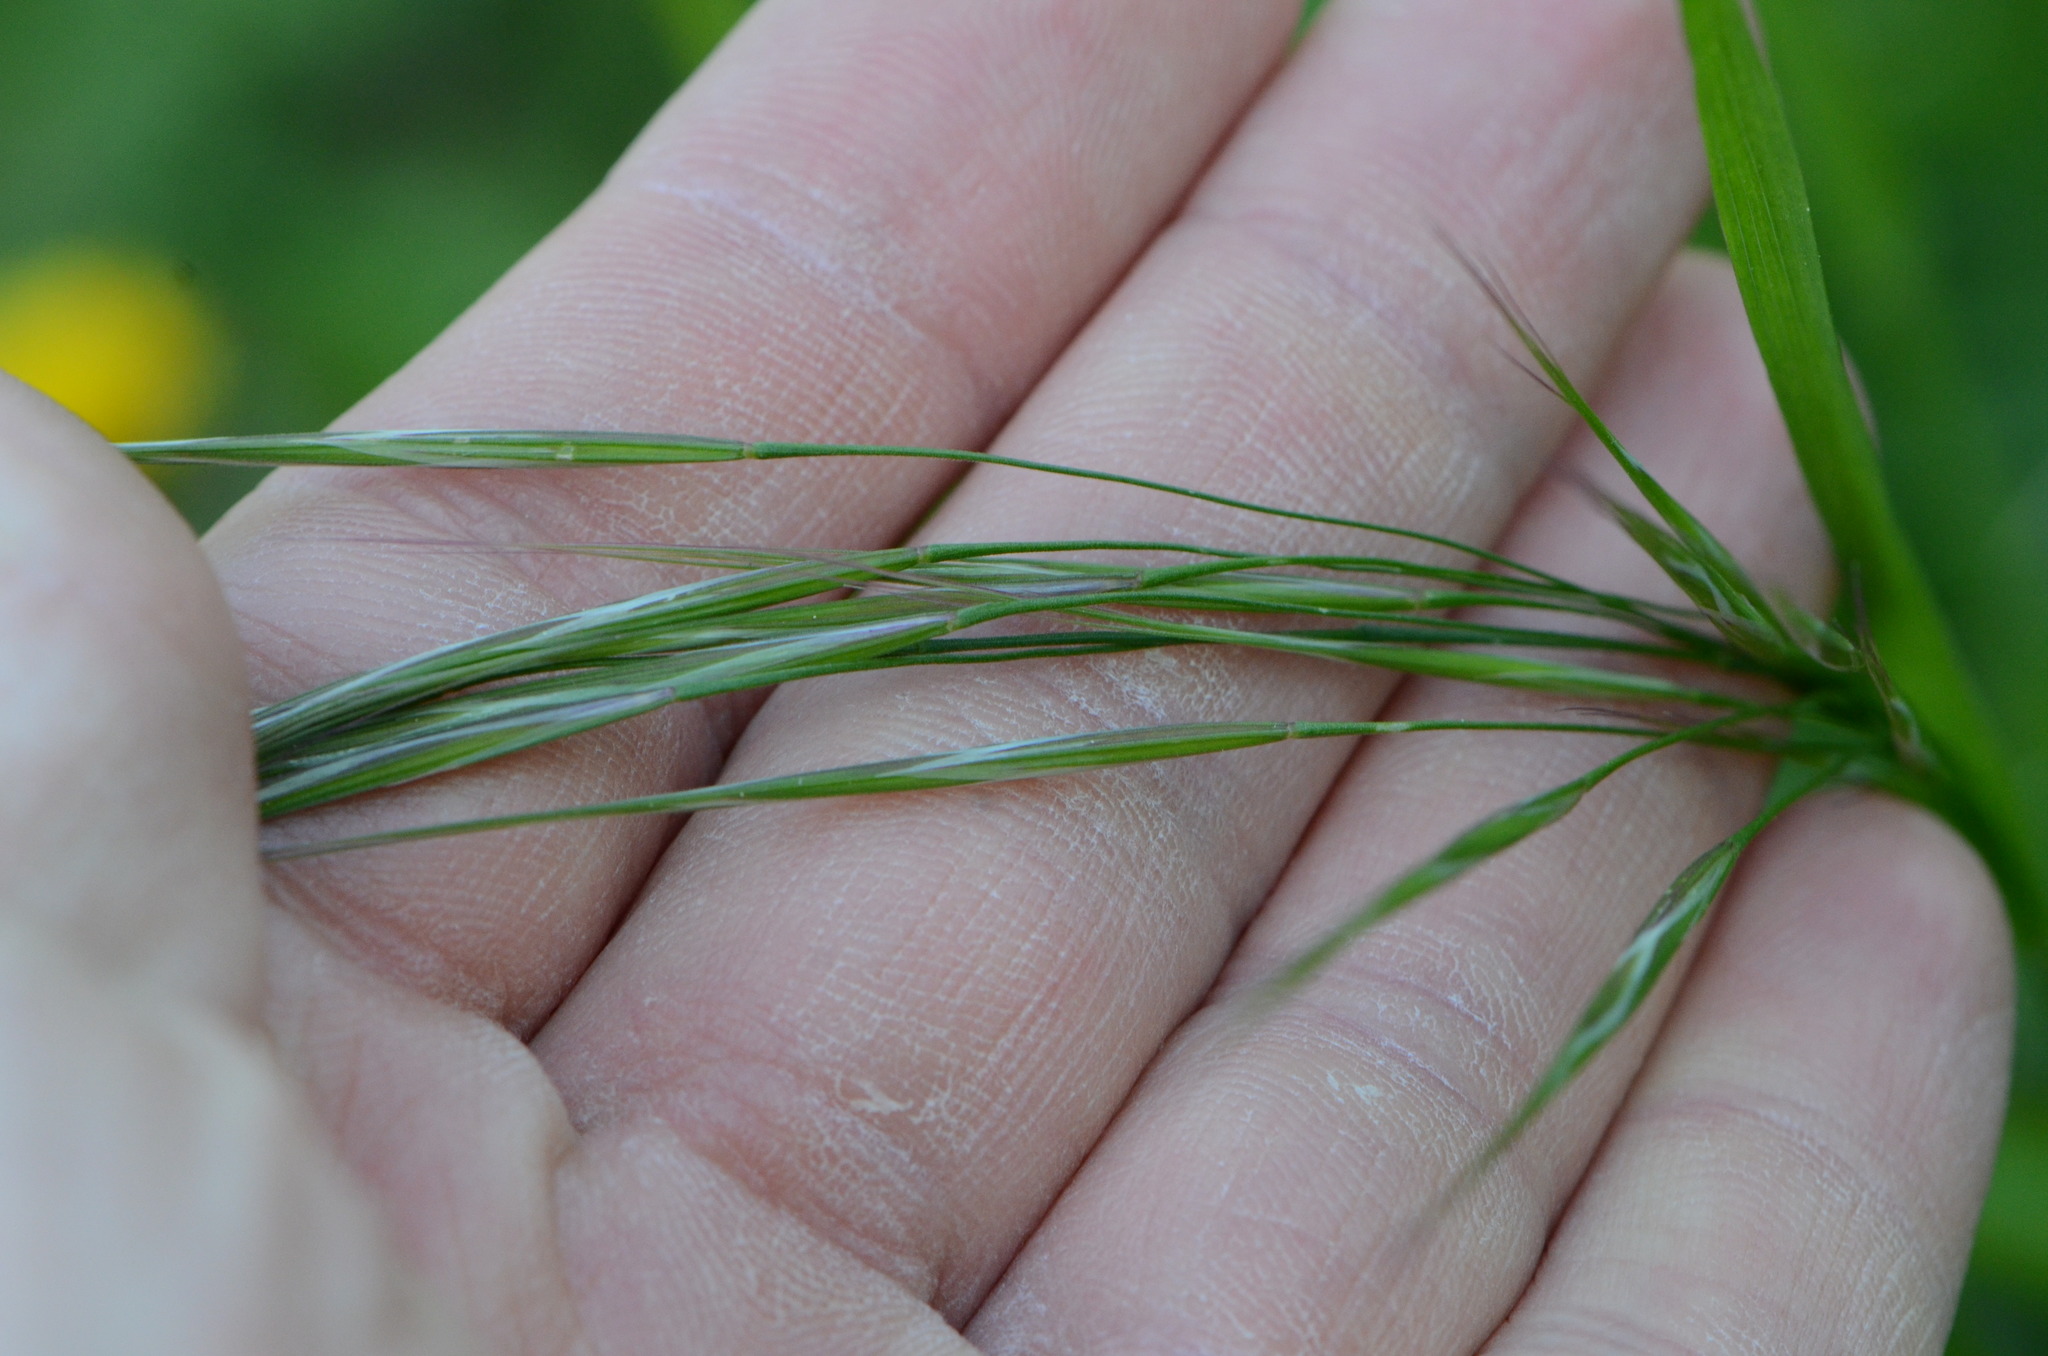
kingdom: Plantae
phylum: Tracheophyta
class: Liliopsida
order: Poales
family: Poaceae
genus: Bromus
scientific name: Bromus sterilis
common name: Poverty brome
